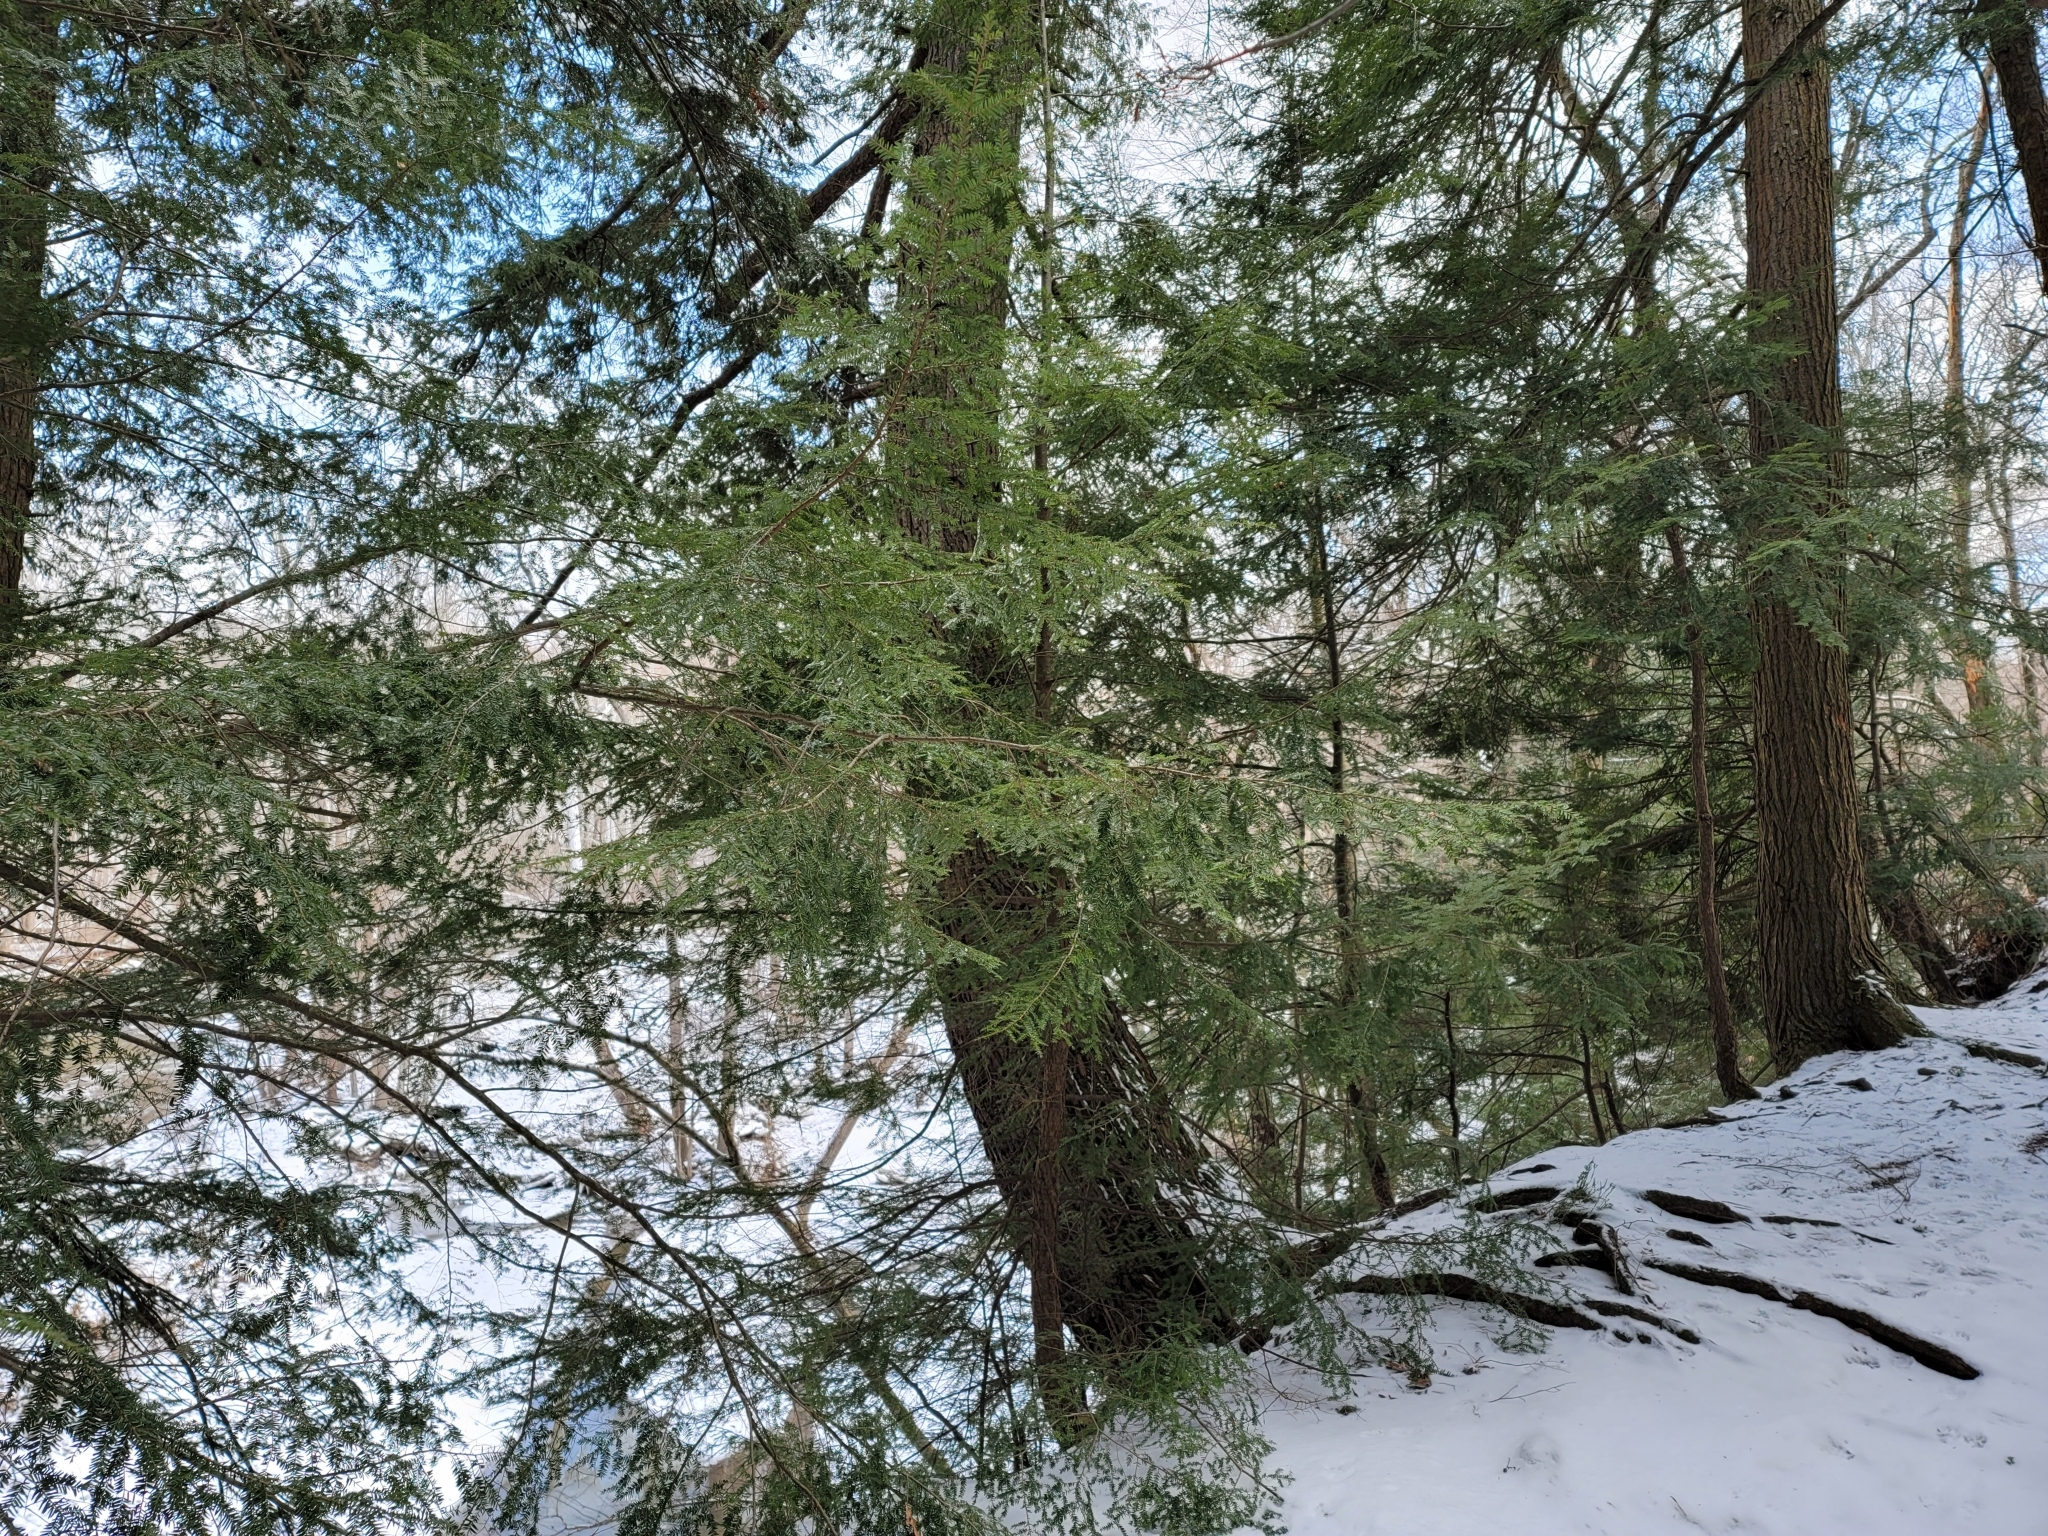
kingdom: Plantae
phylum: Tracheophyta
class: Pinopsida
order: Pinales
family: Pinaceae
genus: Tsuga
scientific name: Tsuga canadensis
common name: Eastern hemlock
